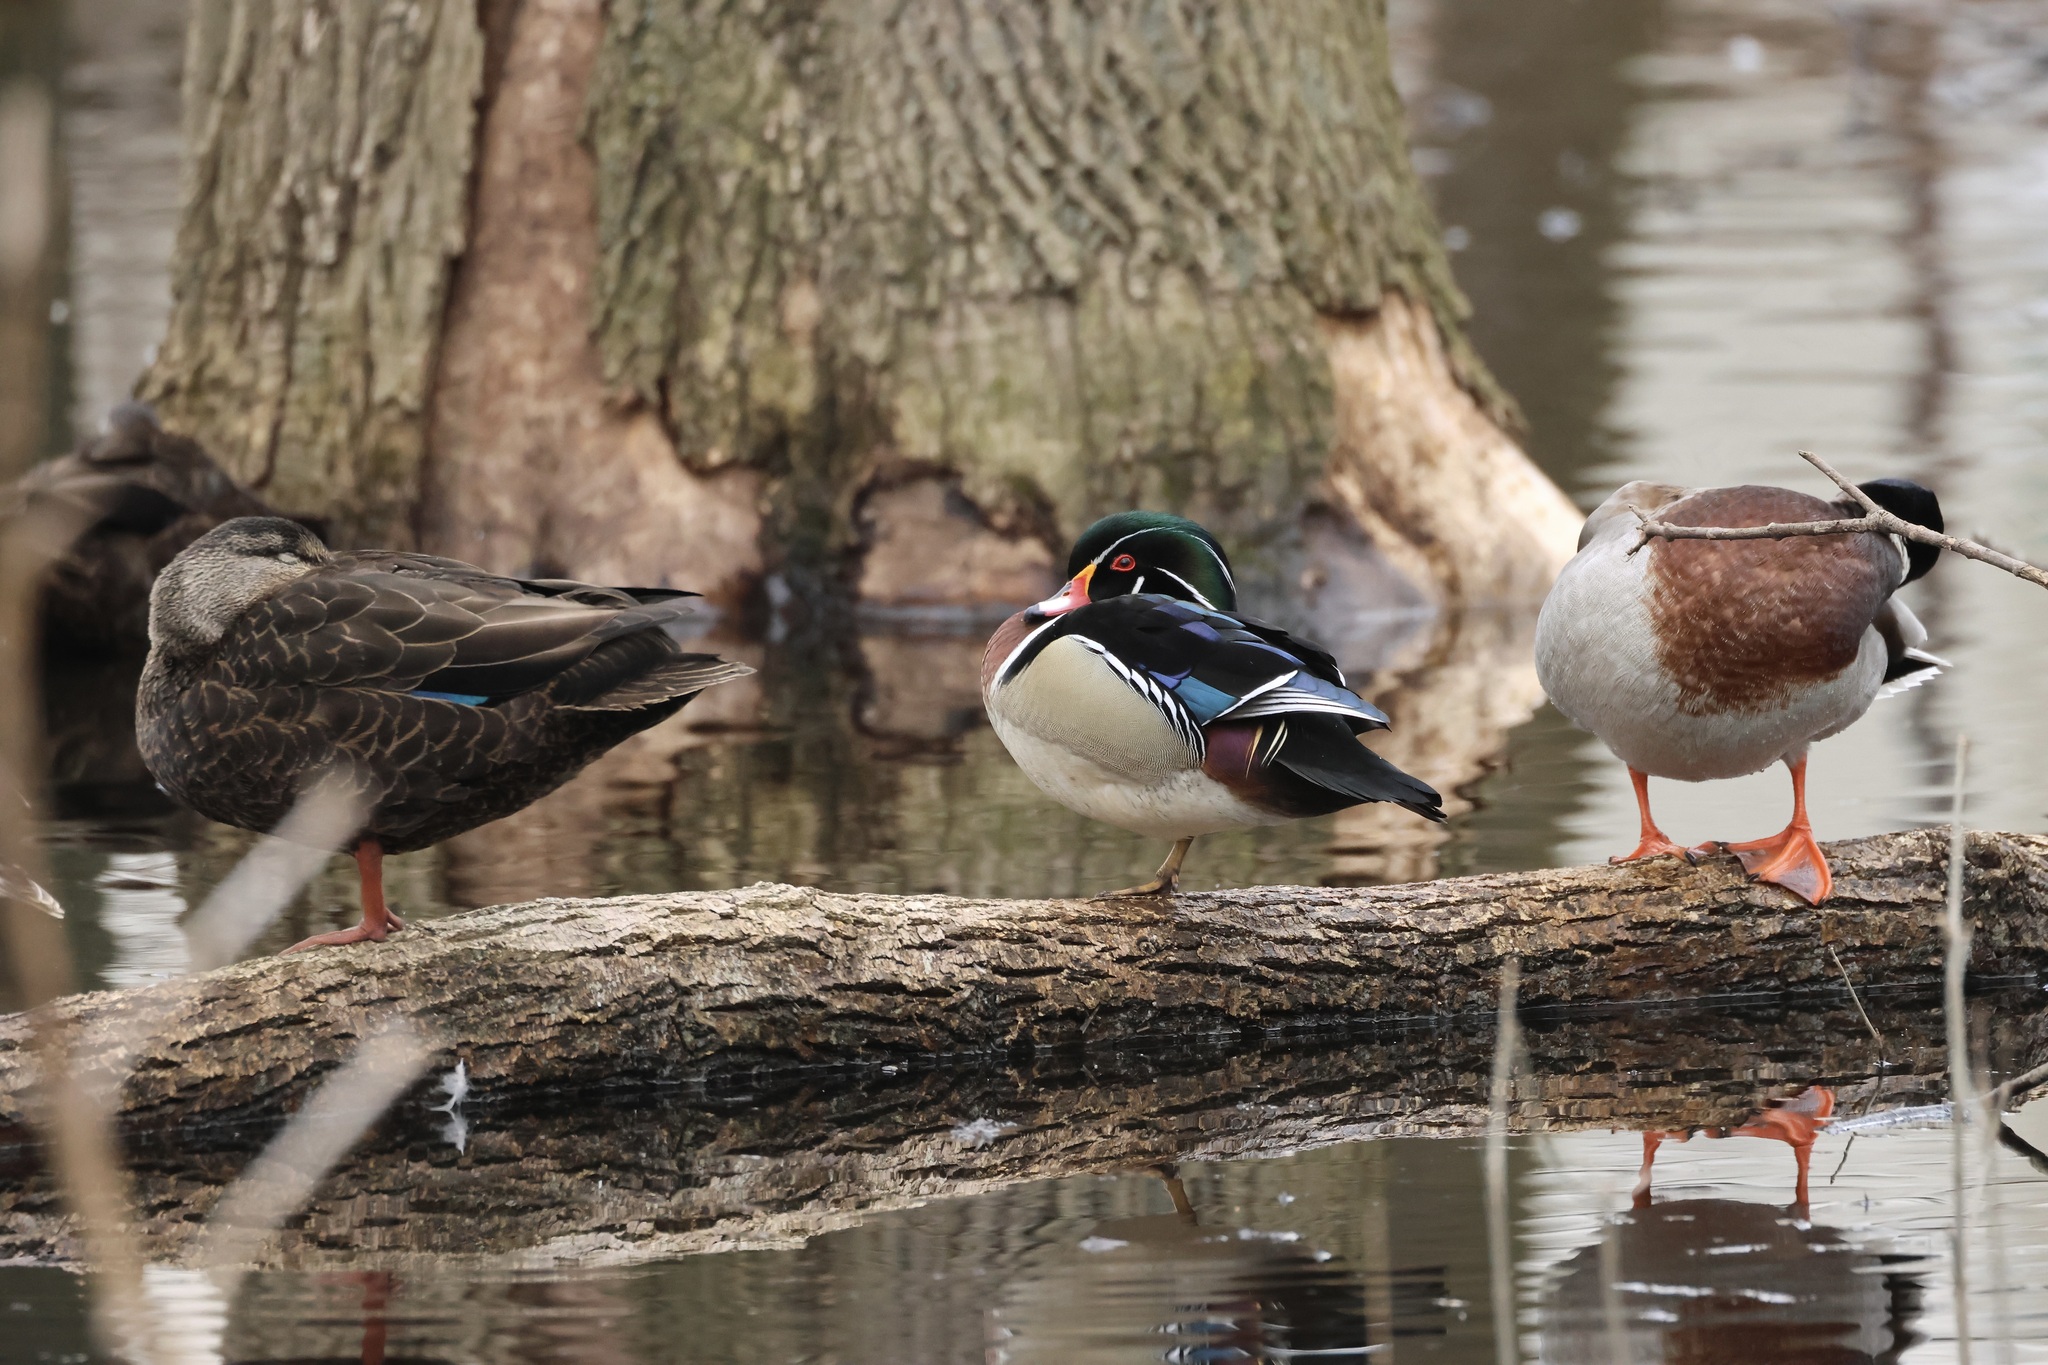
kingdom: Animalia
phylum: Chordata
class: Aves
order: Anseriformes
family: Anatidae
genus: Aix
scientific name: Aix sponsa
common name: Wood duck
